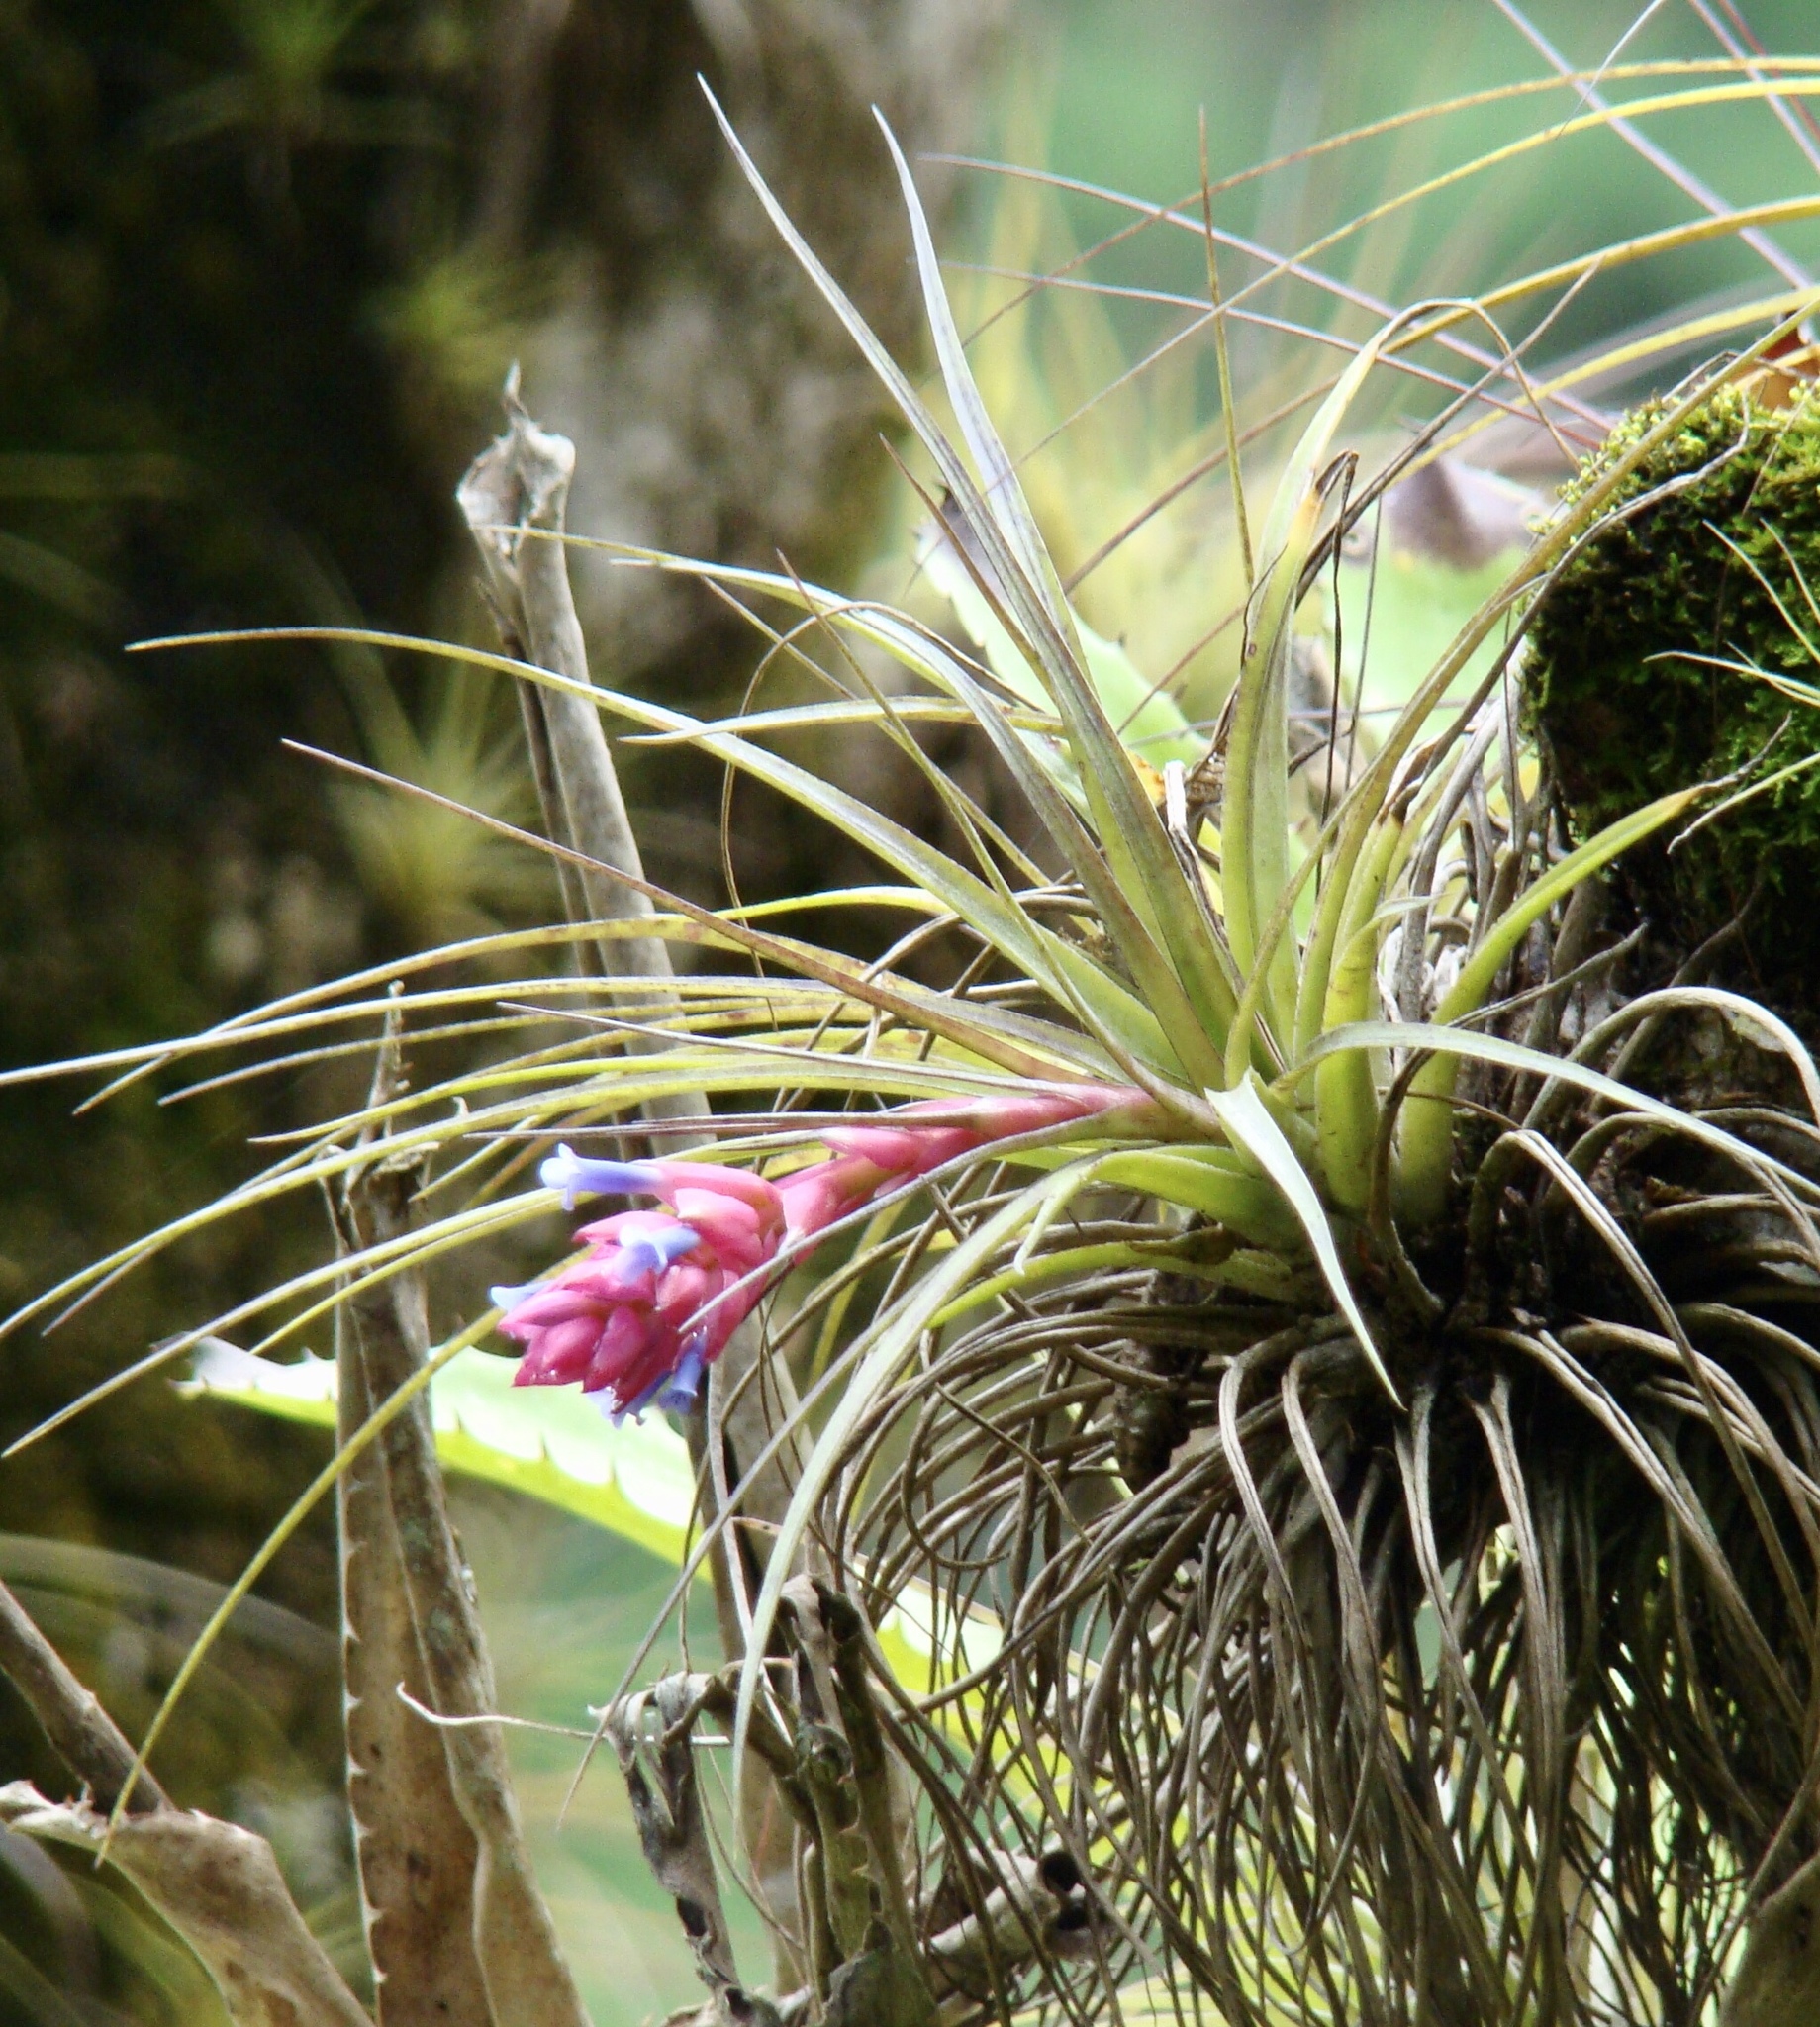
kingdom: Plantae
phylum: Tracheophyta
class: Liliopsida
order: Poales
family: Bromeliaceae
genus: Tillandsia
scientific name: Tillandsia stricta
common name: Airplant
